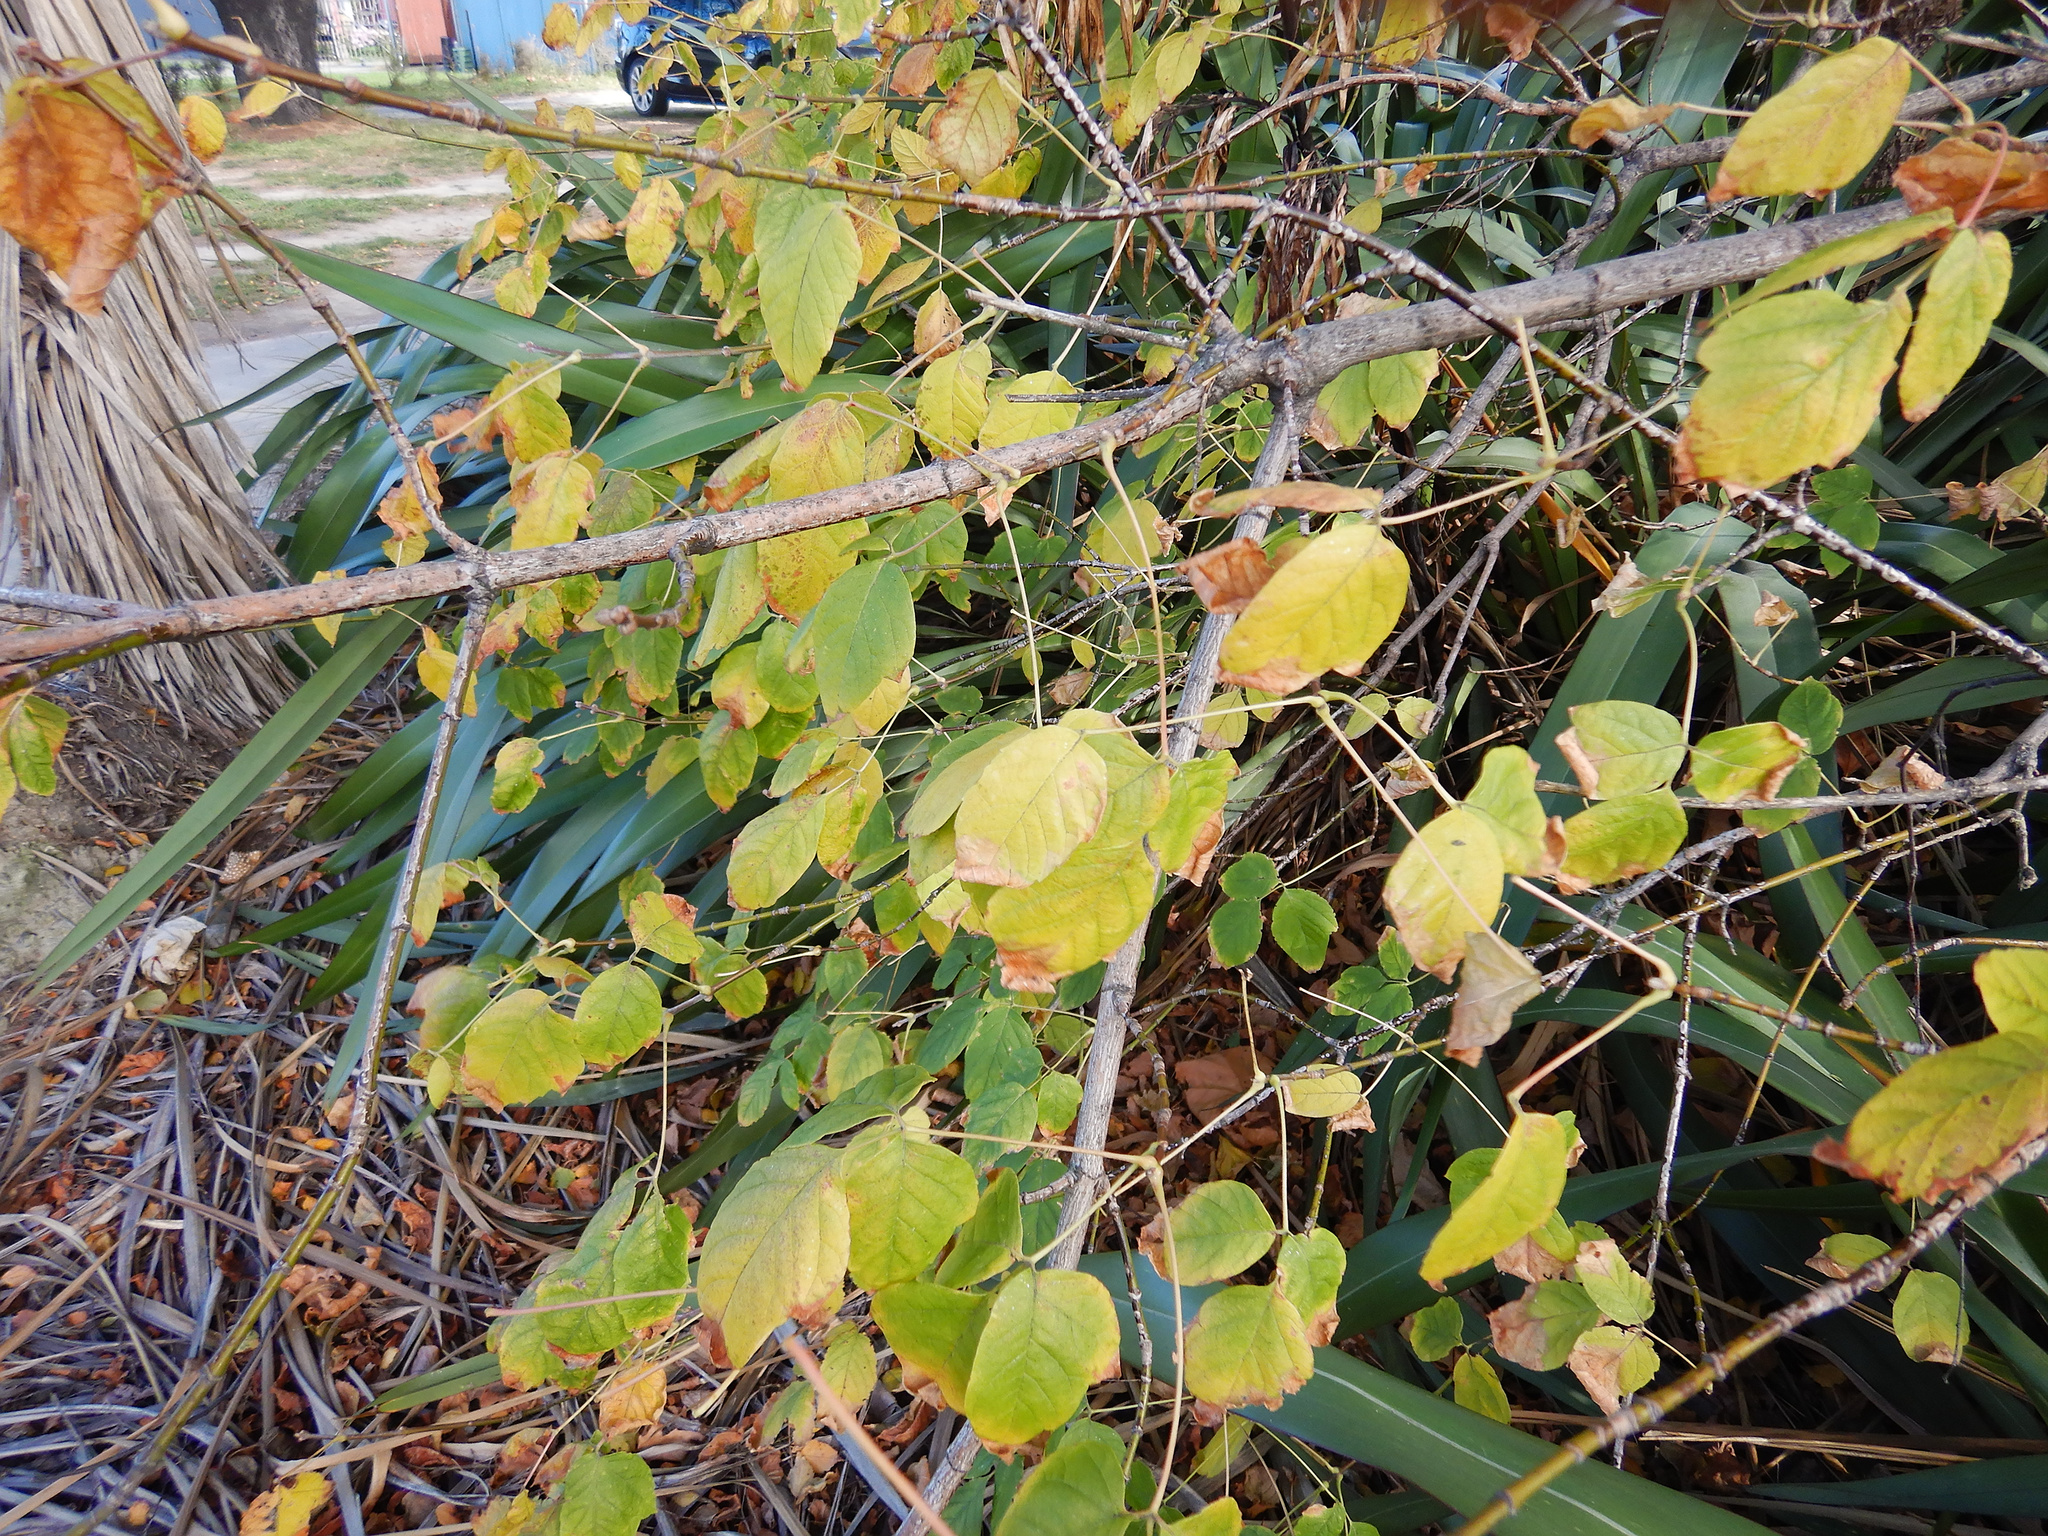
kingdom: Plantae
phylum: Tracheophyta
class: Magnoliopsida
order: Sapindales
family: Sapindaceae
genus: Acer
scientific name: Acer negundo
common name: Ashleaf maple
